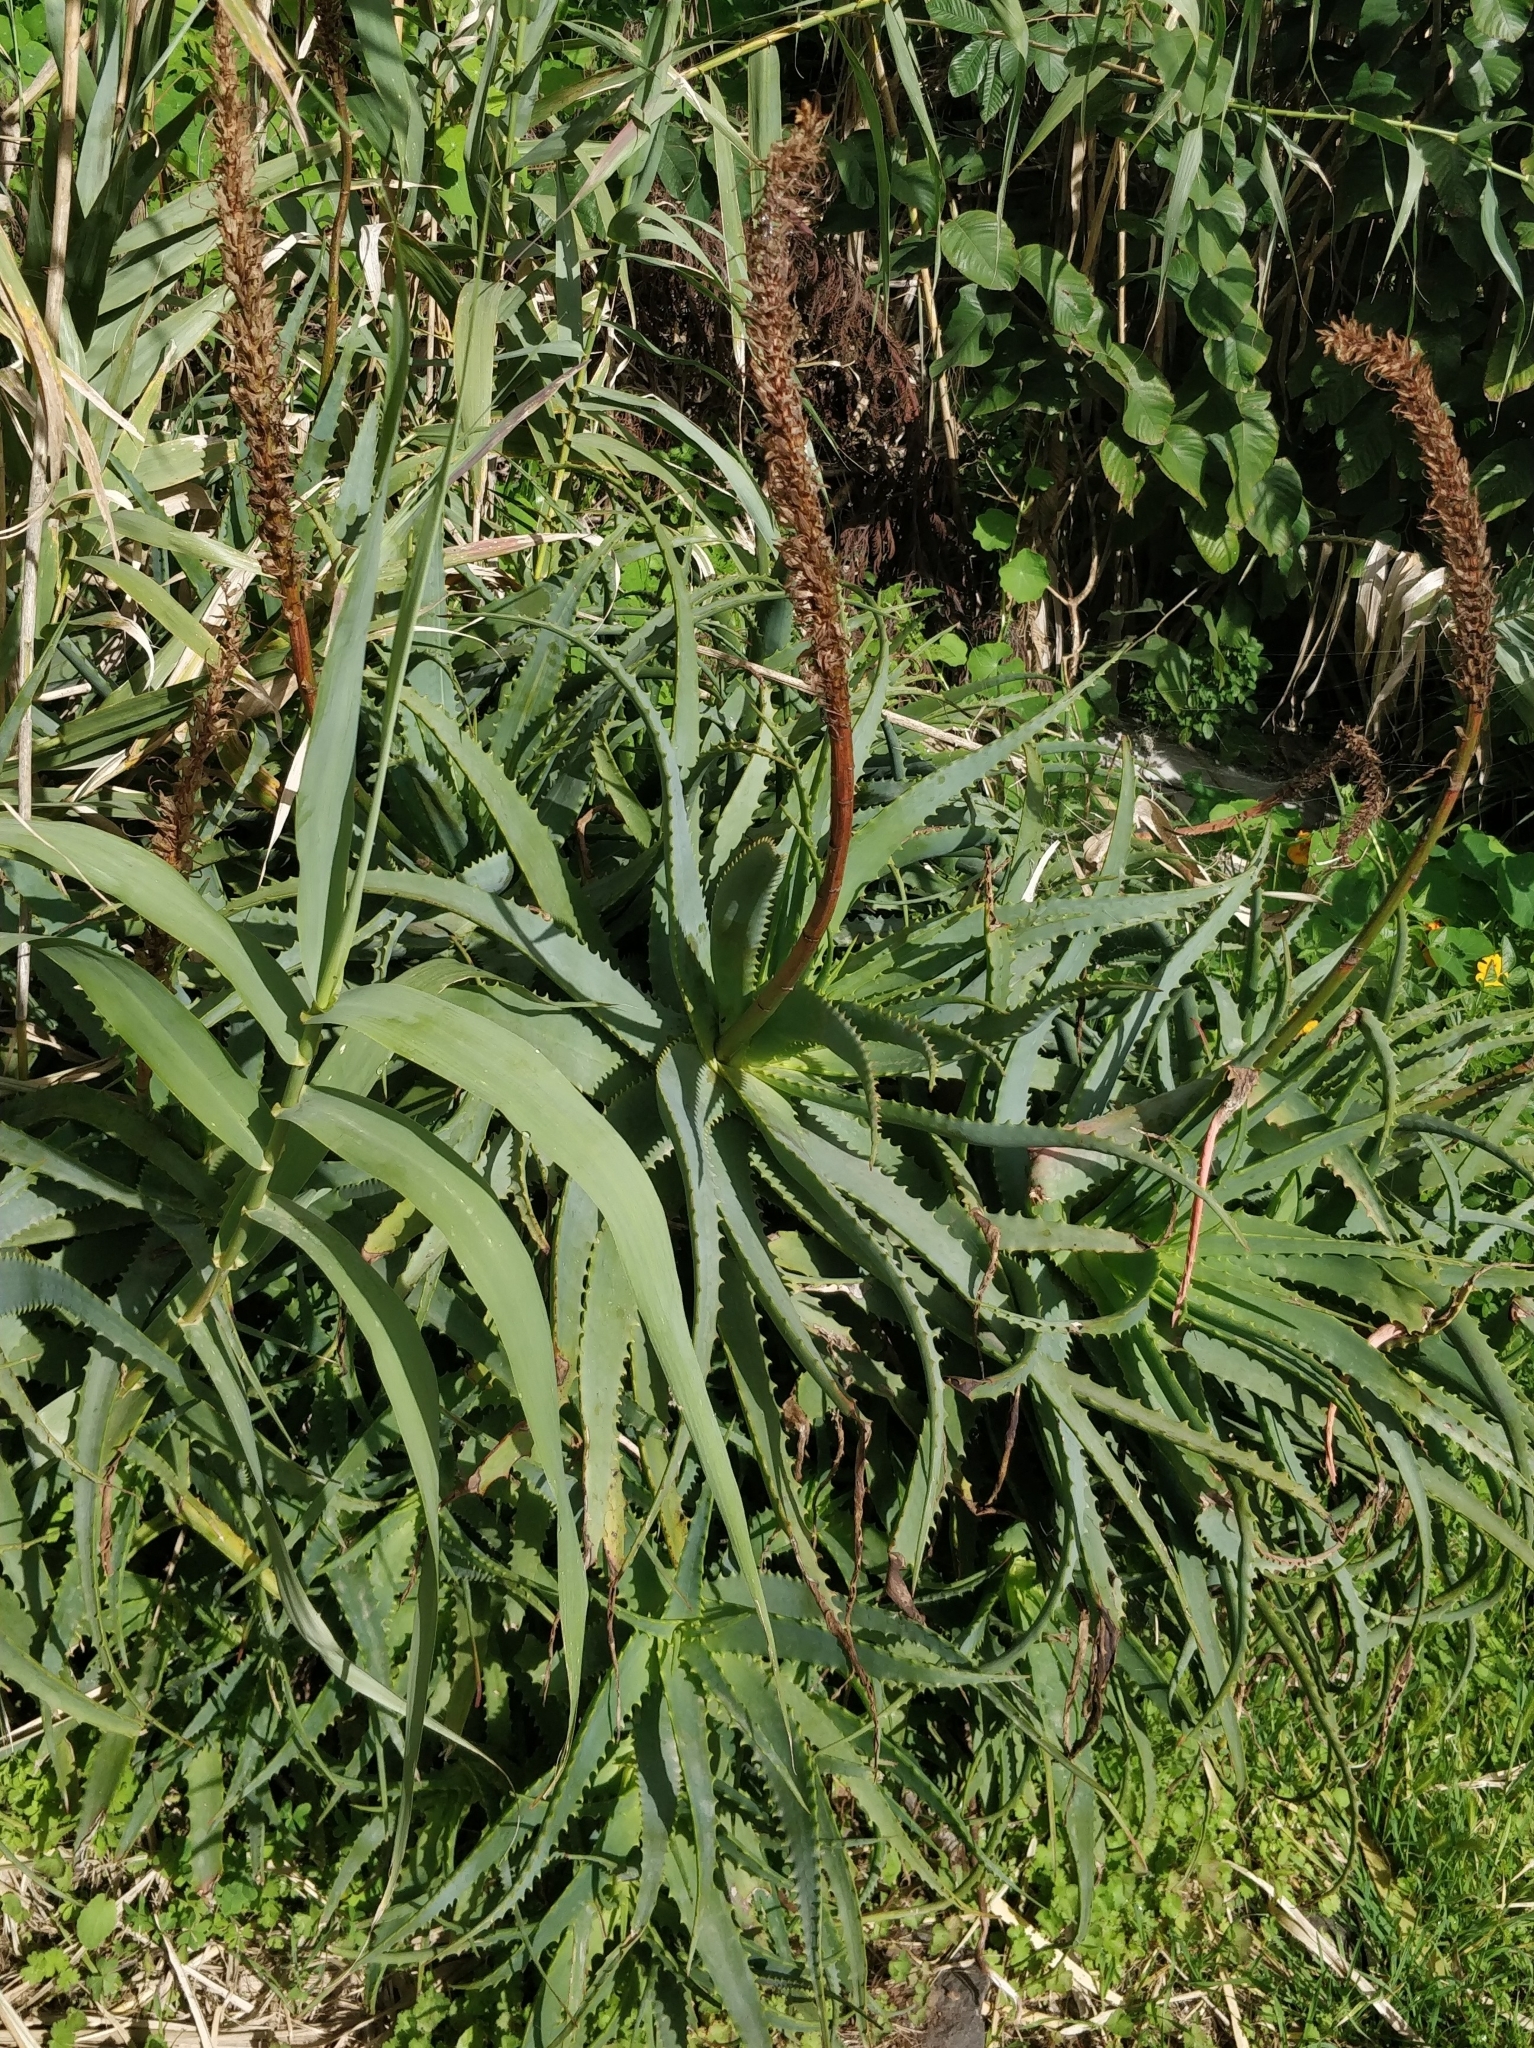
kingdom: Plantae
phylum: Tracheophyta
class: Liliopsida
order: Asparagales
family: Asphodelaceae
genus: Aloe
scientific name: Aloe arborescens
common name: Candelabra aloe
